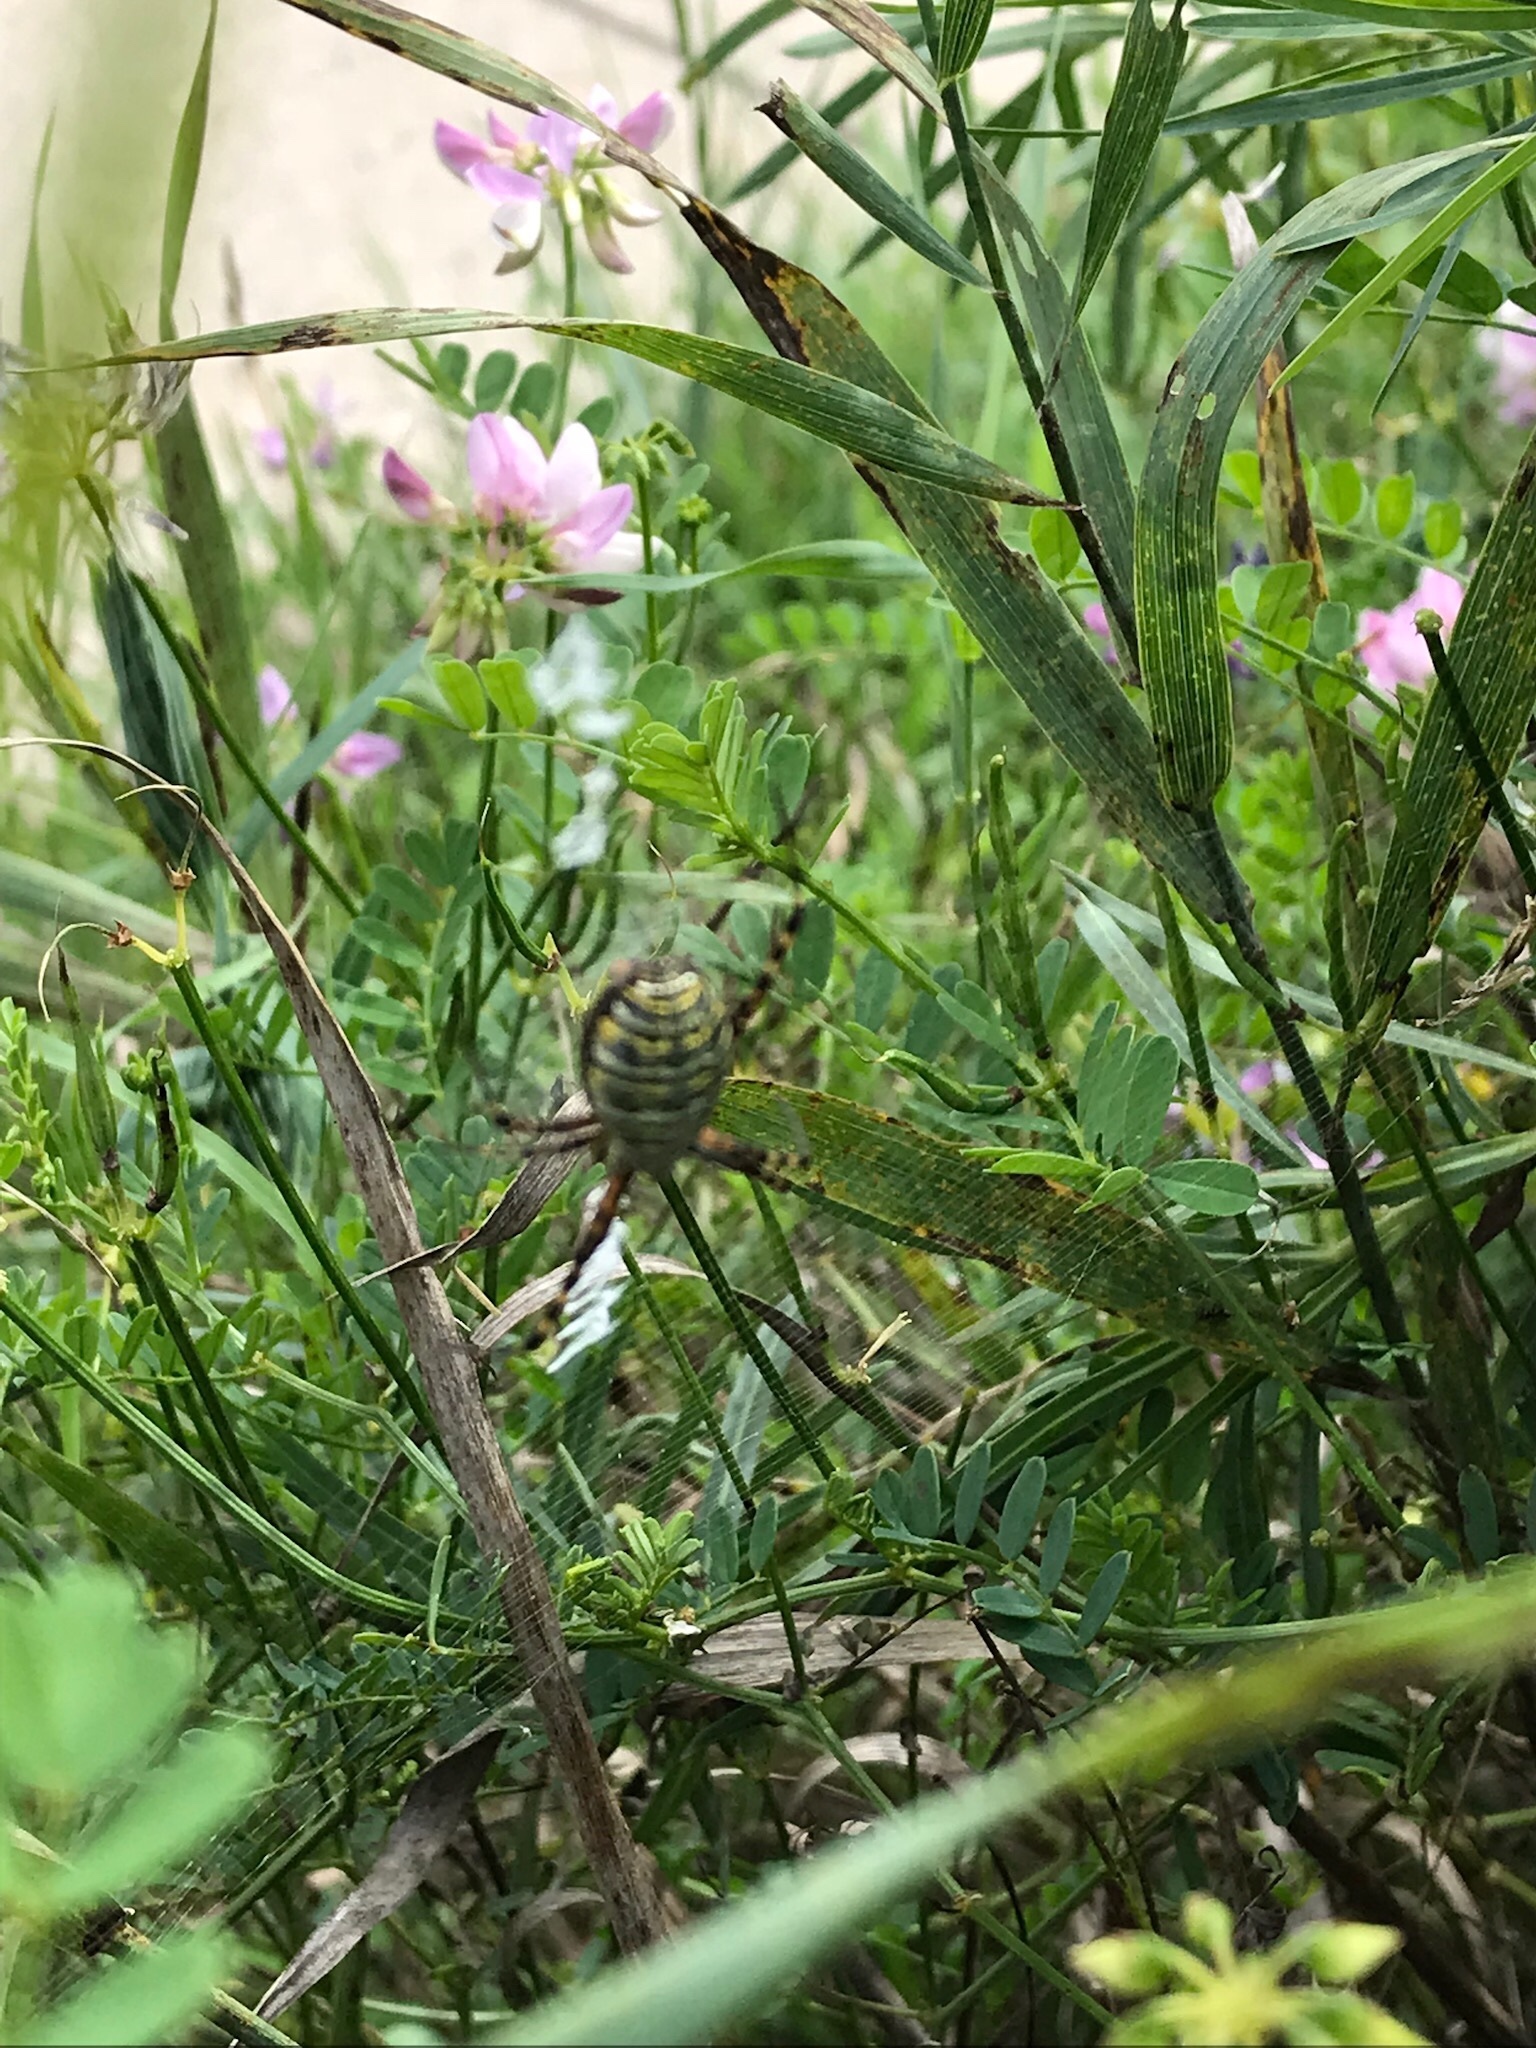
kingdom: Animalia
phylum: Arthropoda
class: Arachnida
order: Araneae
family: Araneidae
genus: Argiope
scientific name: Argiope trifasciata
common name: Banded garden spider
